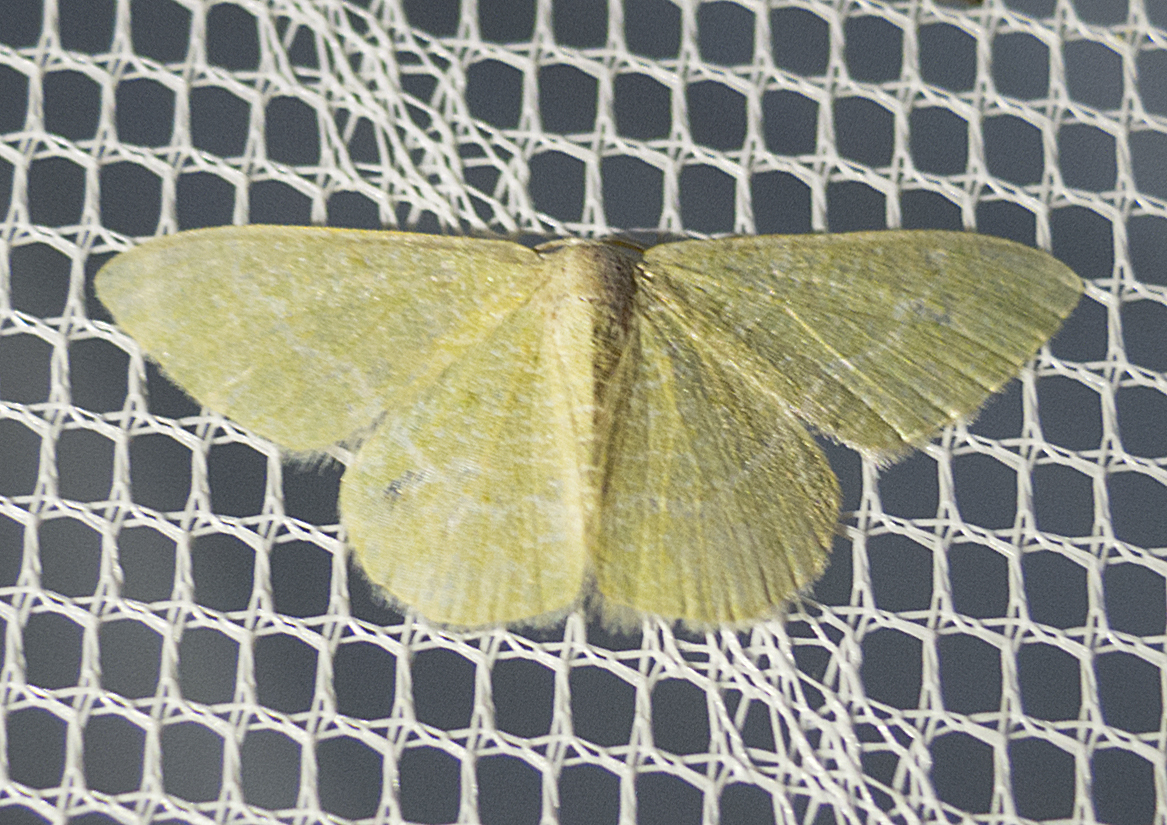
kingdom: Animalia
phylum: Arthropoda
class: Insecta
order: Lepidoptera
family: Geometridae
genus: Chlorissa
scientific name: Chlorissa etruscaria
